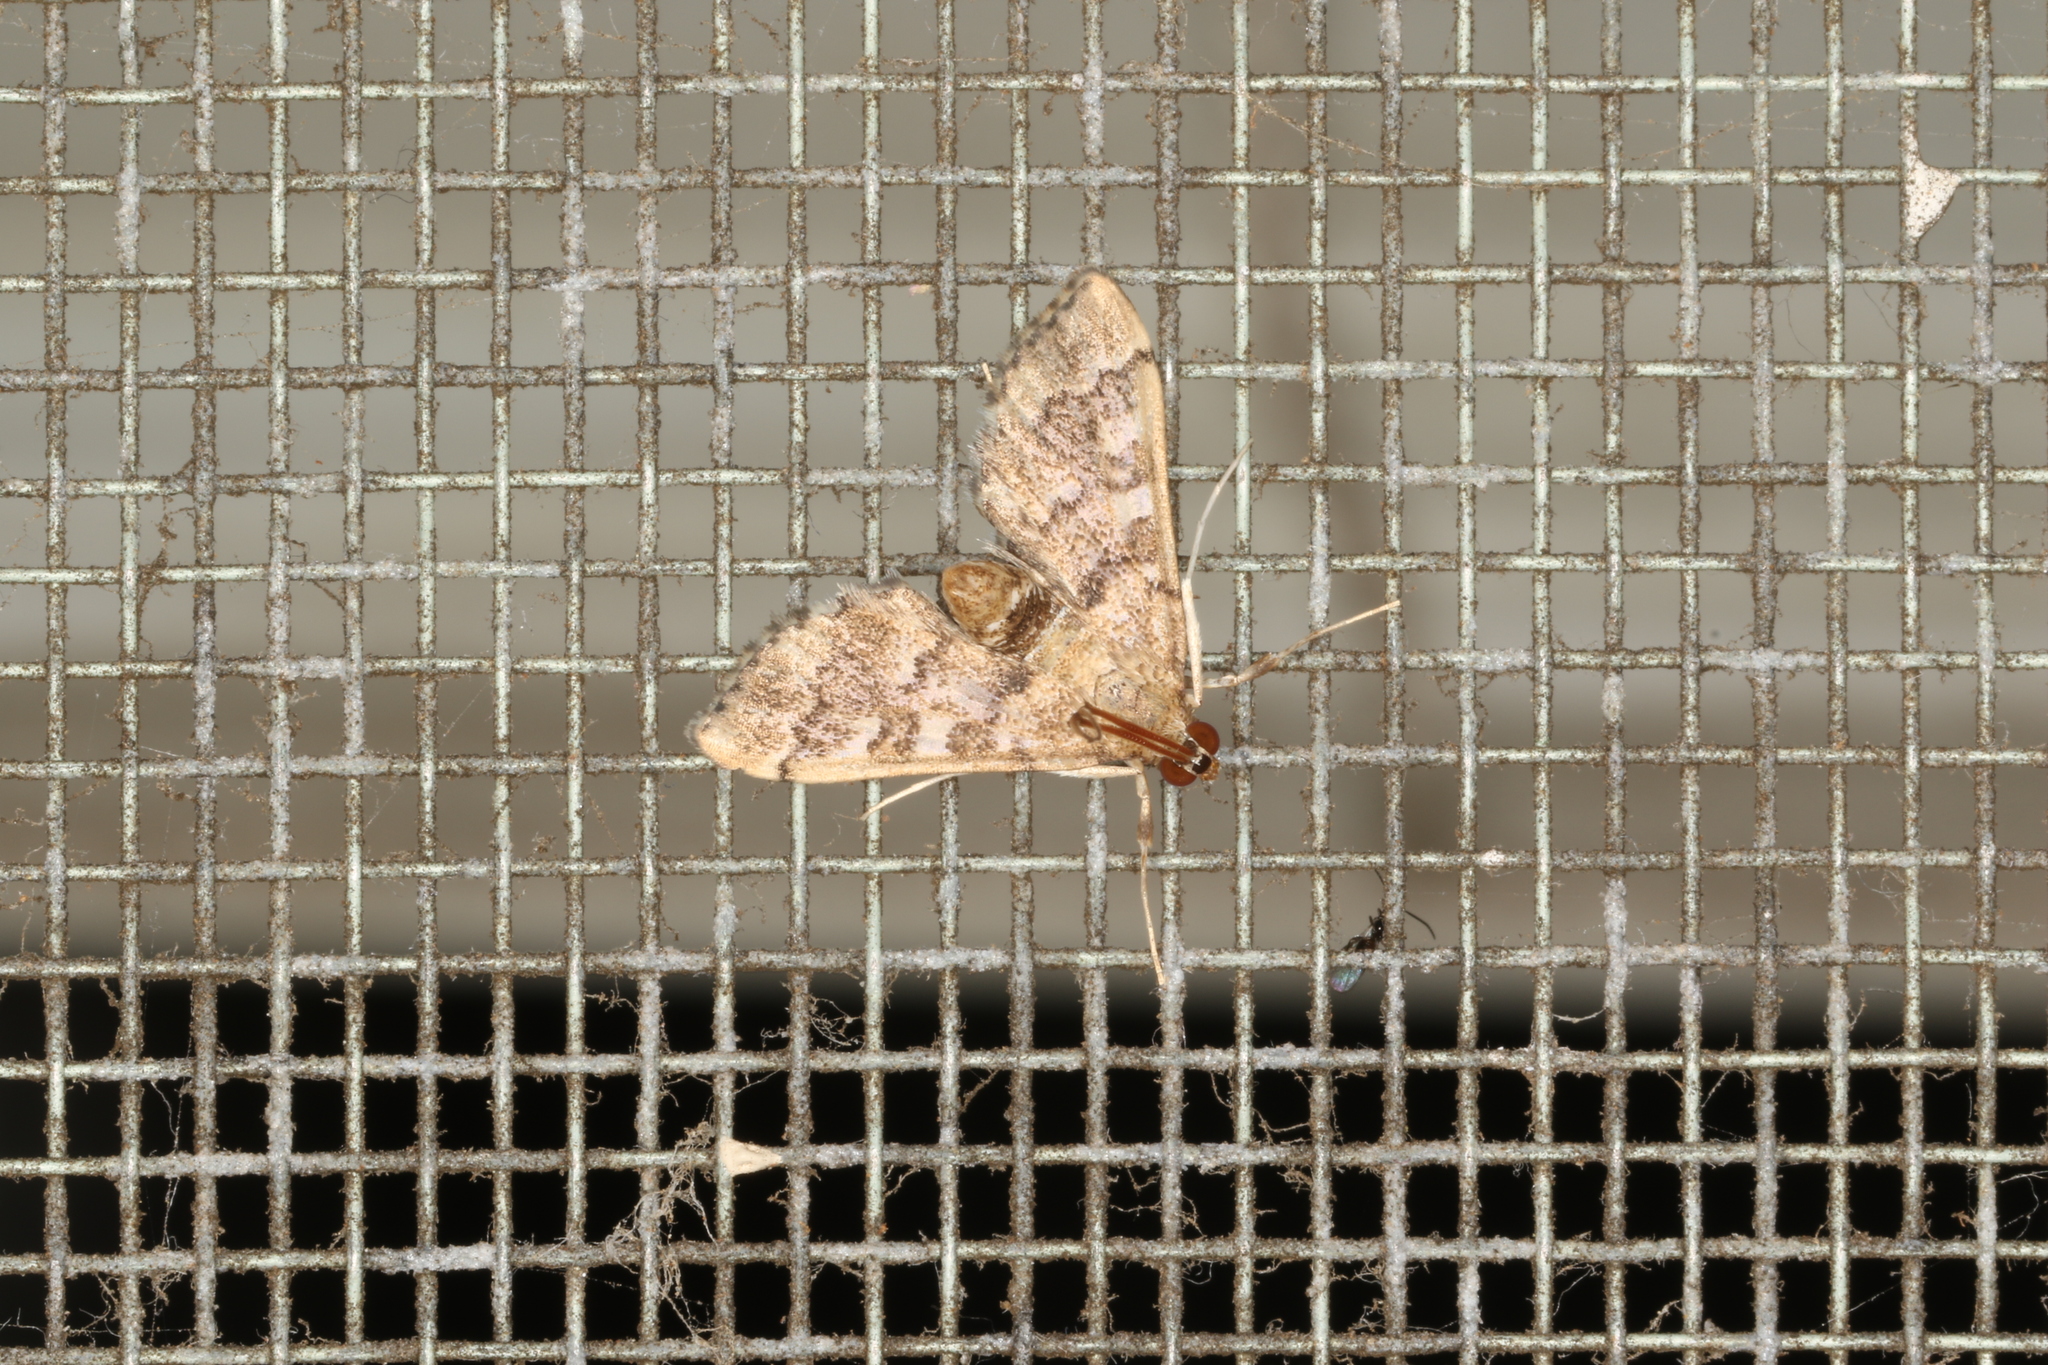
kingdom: Animalia
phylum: Arthropoda
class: Insecta
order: Lepidoptera
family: Crambidae
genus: Nacoleia
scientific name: Nacoleia rhoeoalis
